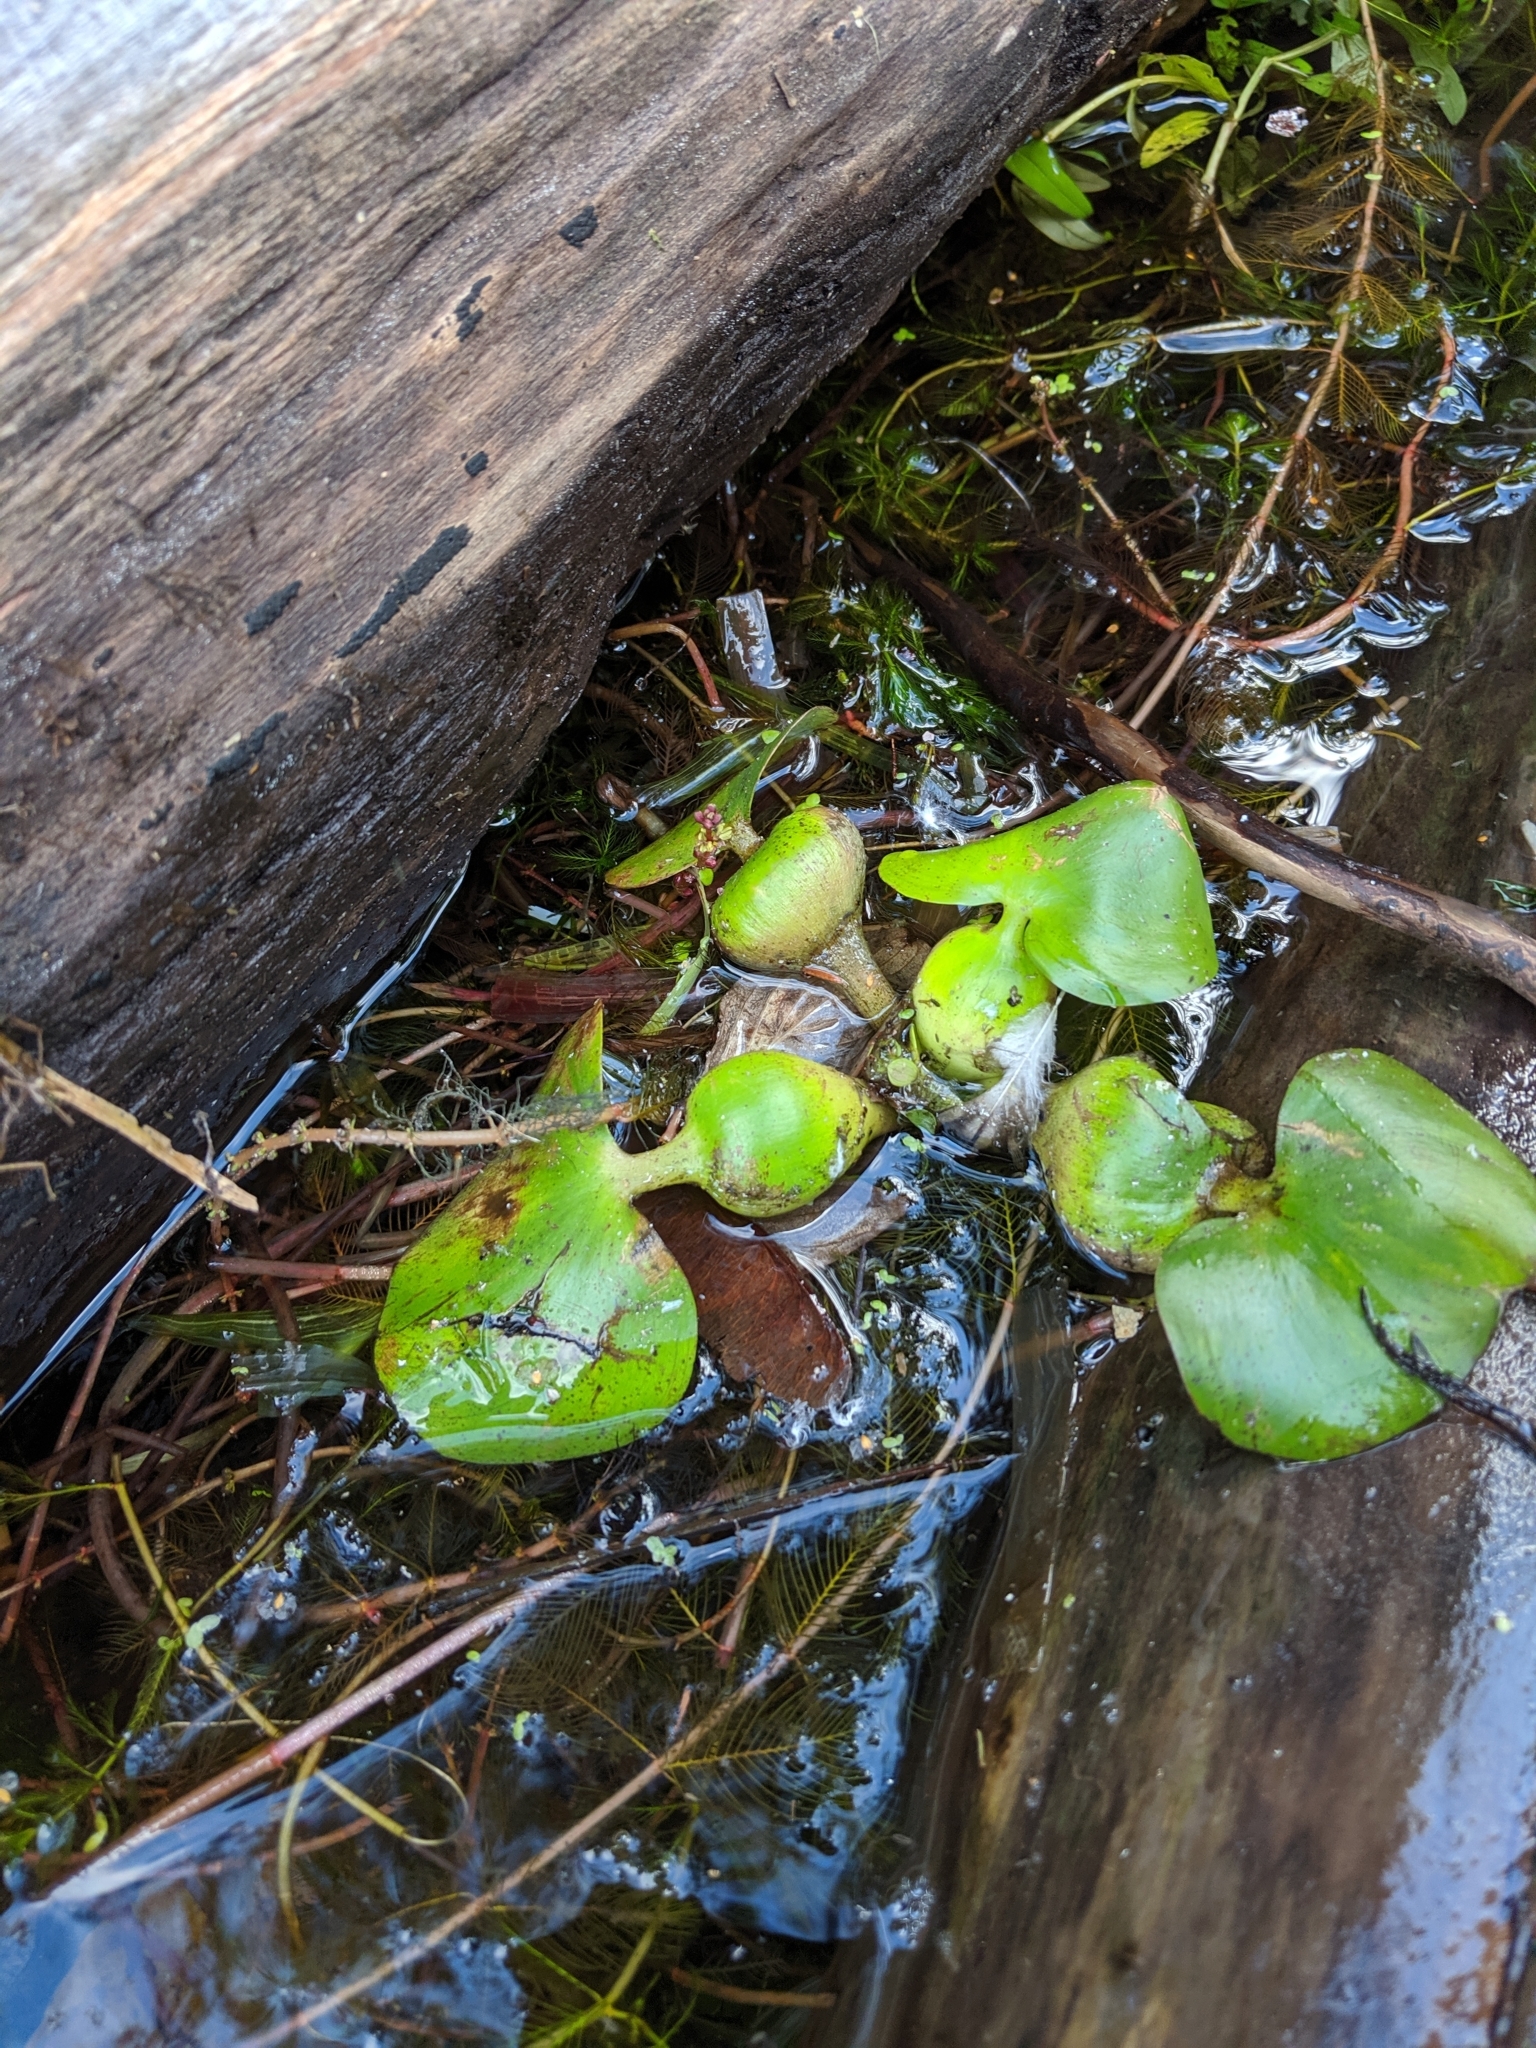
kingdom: Plantae
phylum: Tracheophyta
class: Liliopsida
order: Commelinales
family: Pontederiaceae
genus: Pontederia
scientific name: Pontederia crassipes
